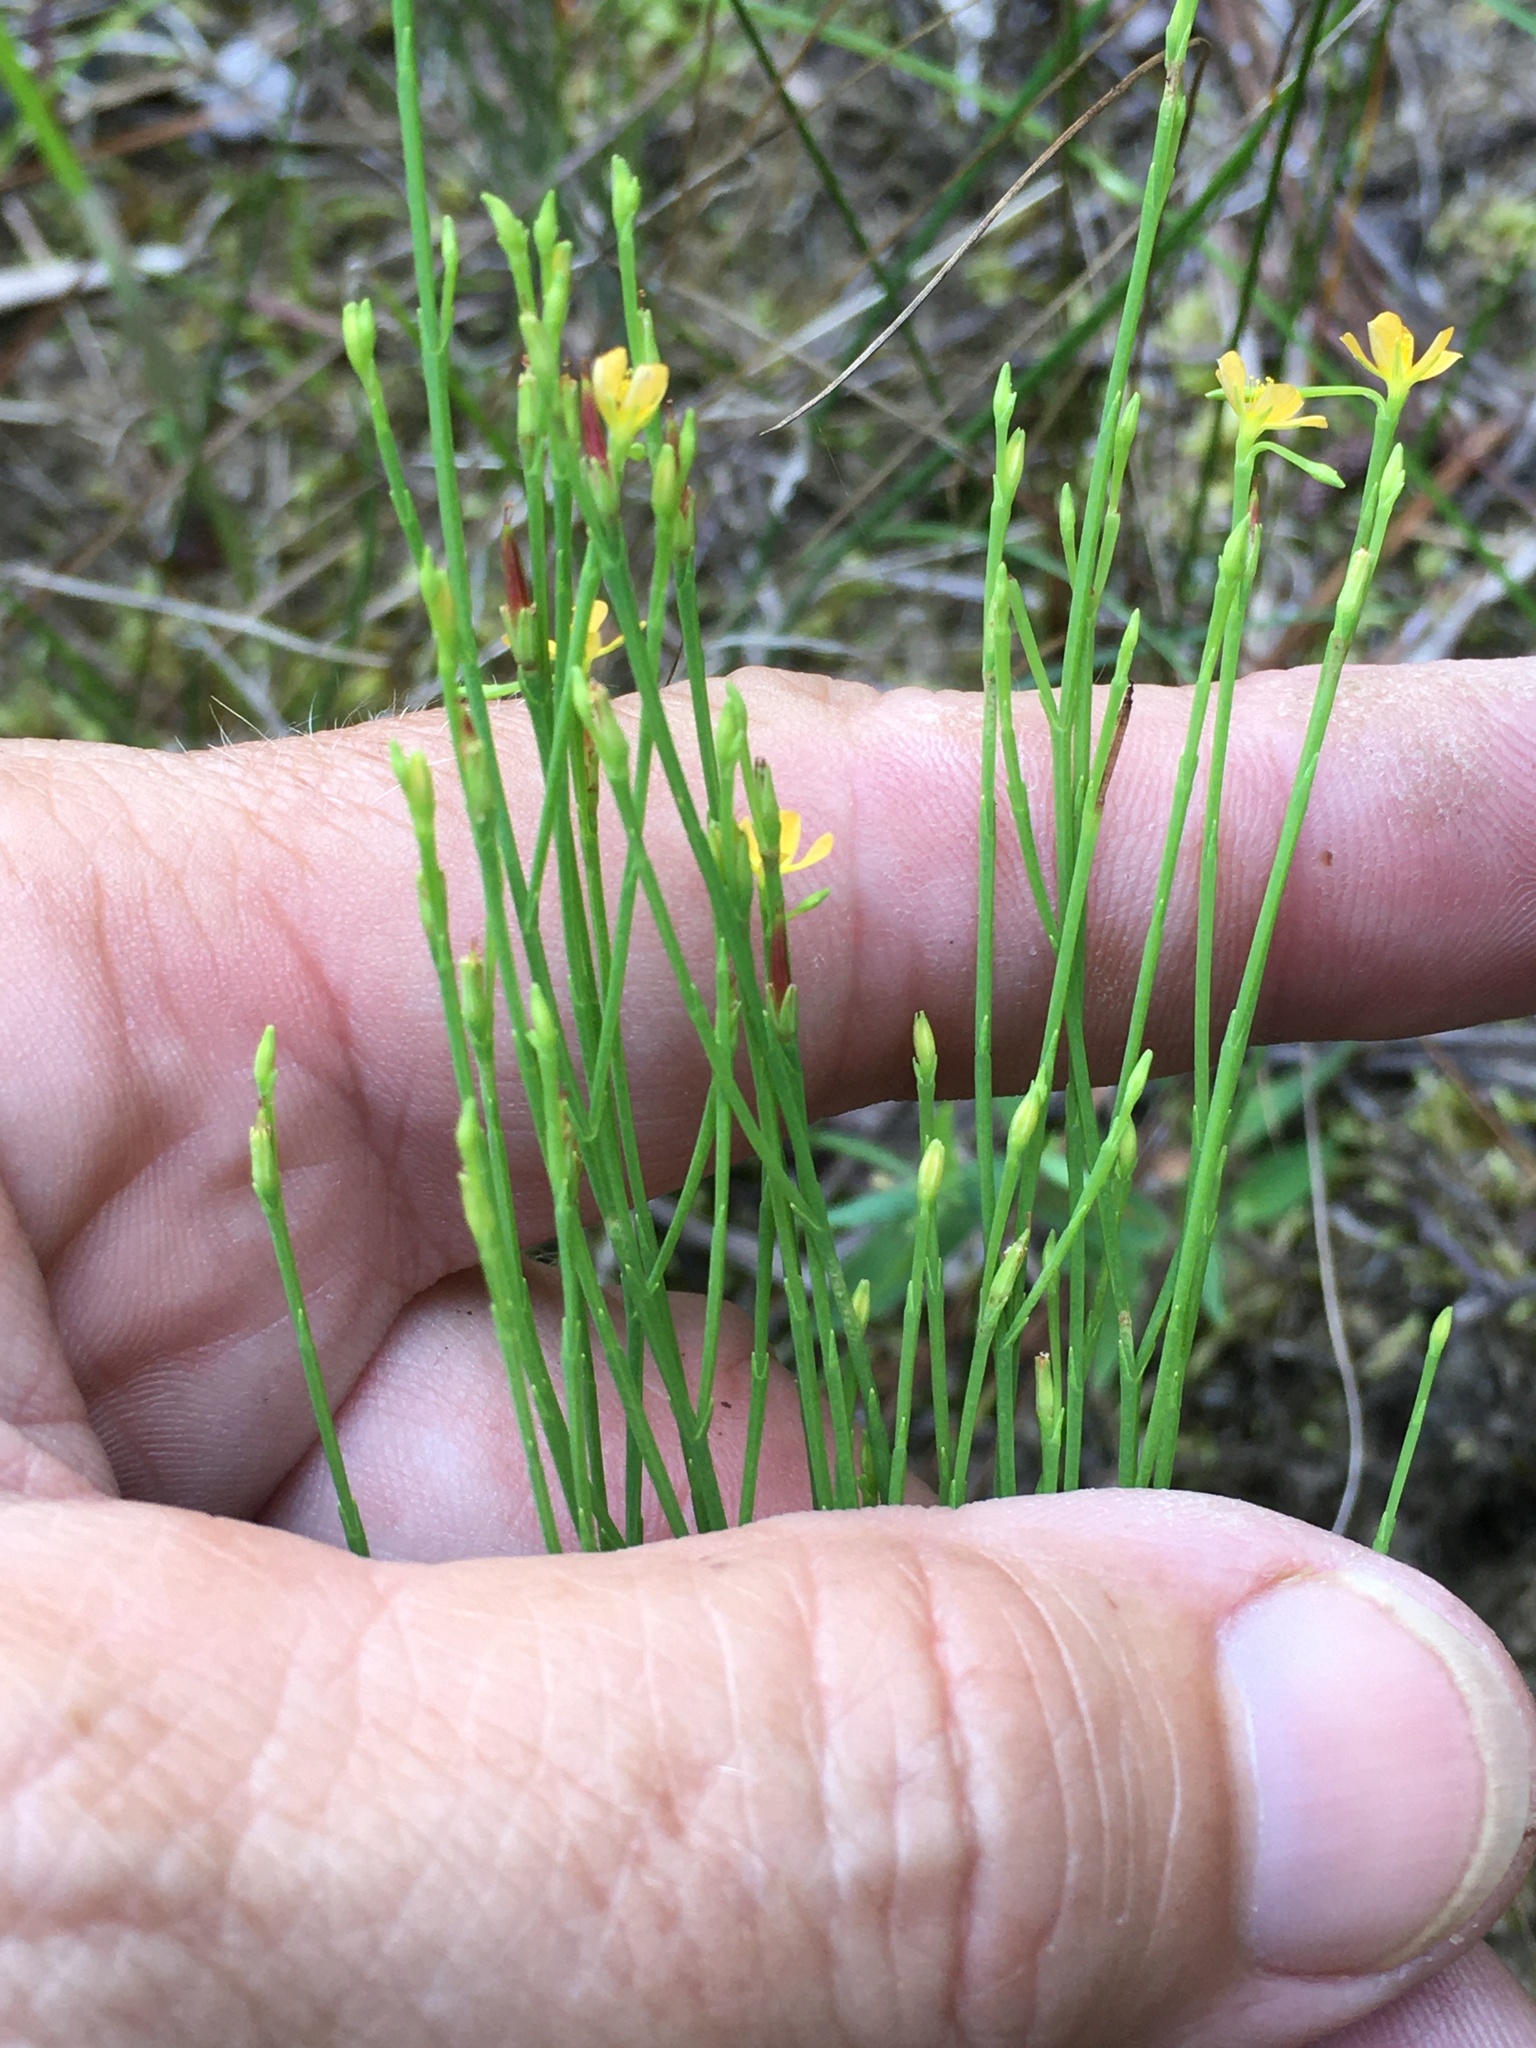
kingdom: Plantae
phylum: Tracheophyta
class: Magnoliopsida
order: Malpighiales
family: Hypericaceae
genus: Hypericum
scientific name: Hypericum gentianoides
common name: Gentian-leaved st. john's-wort
